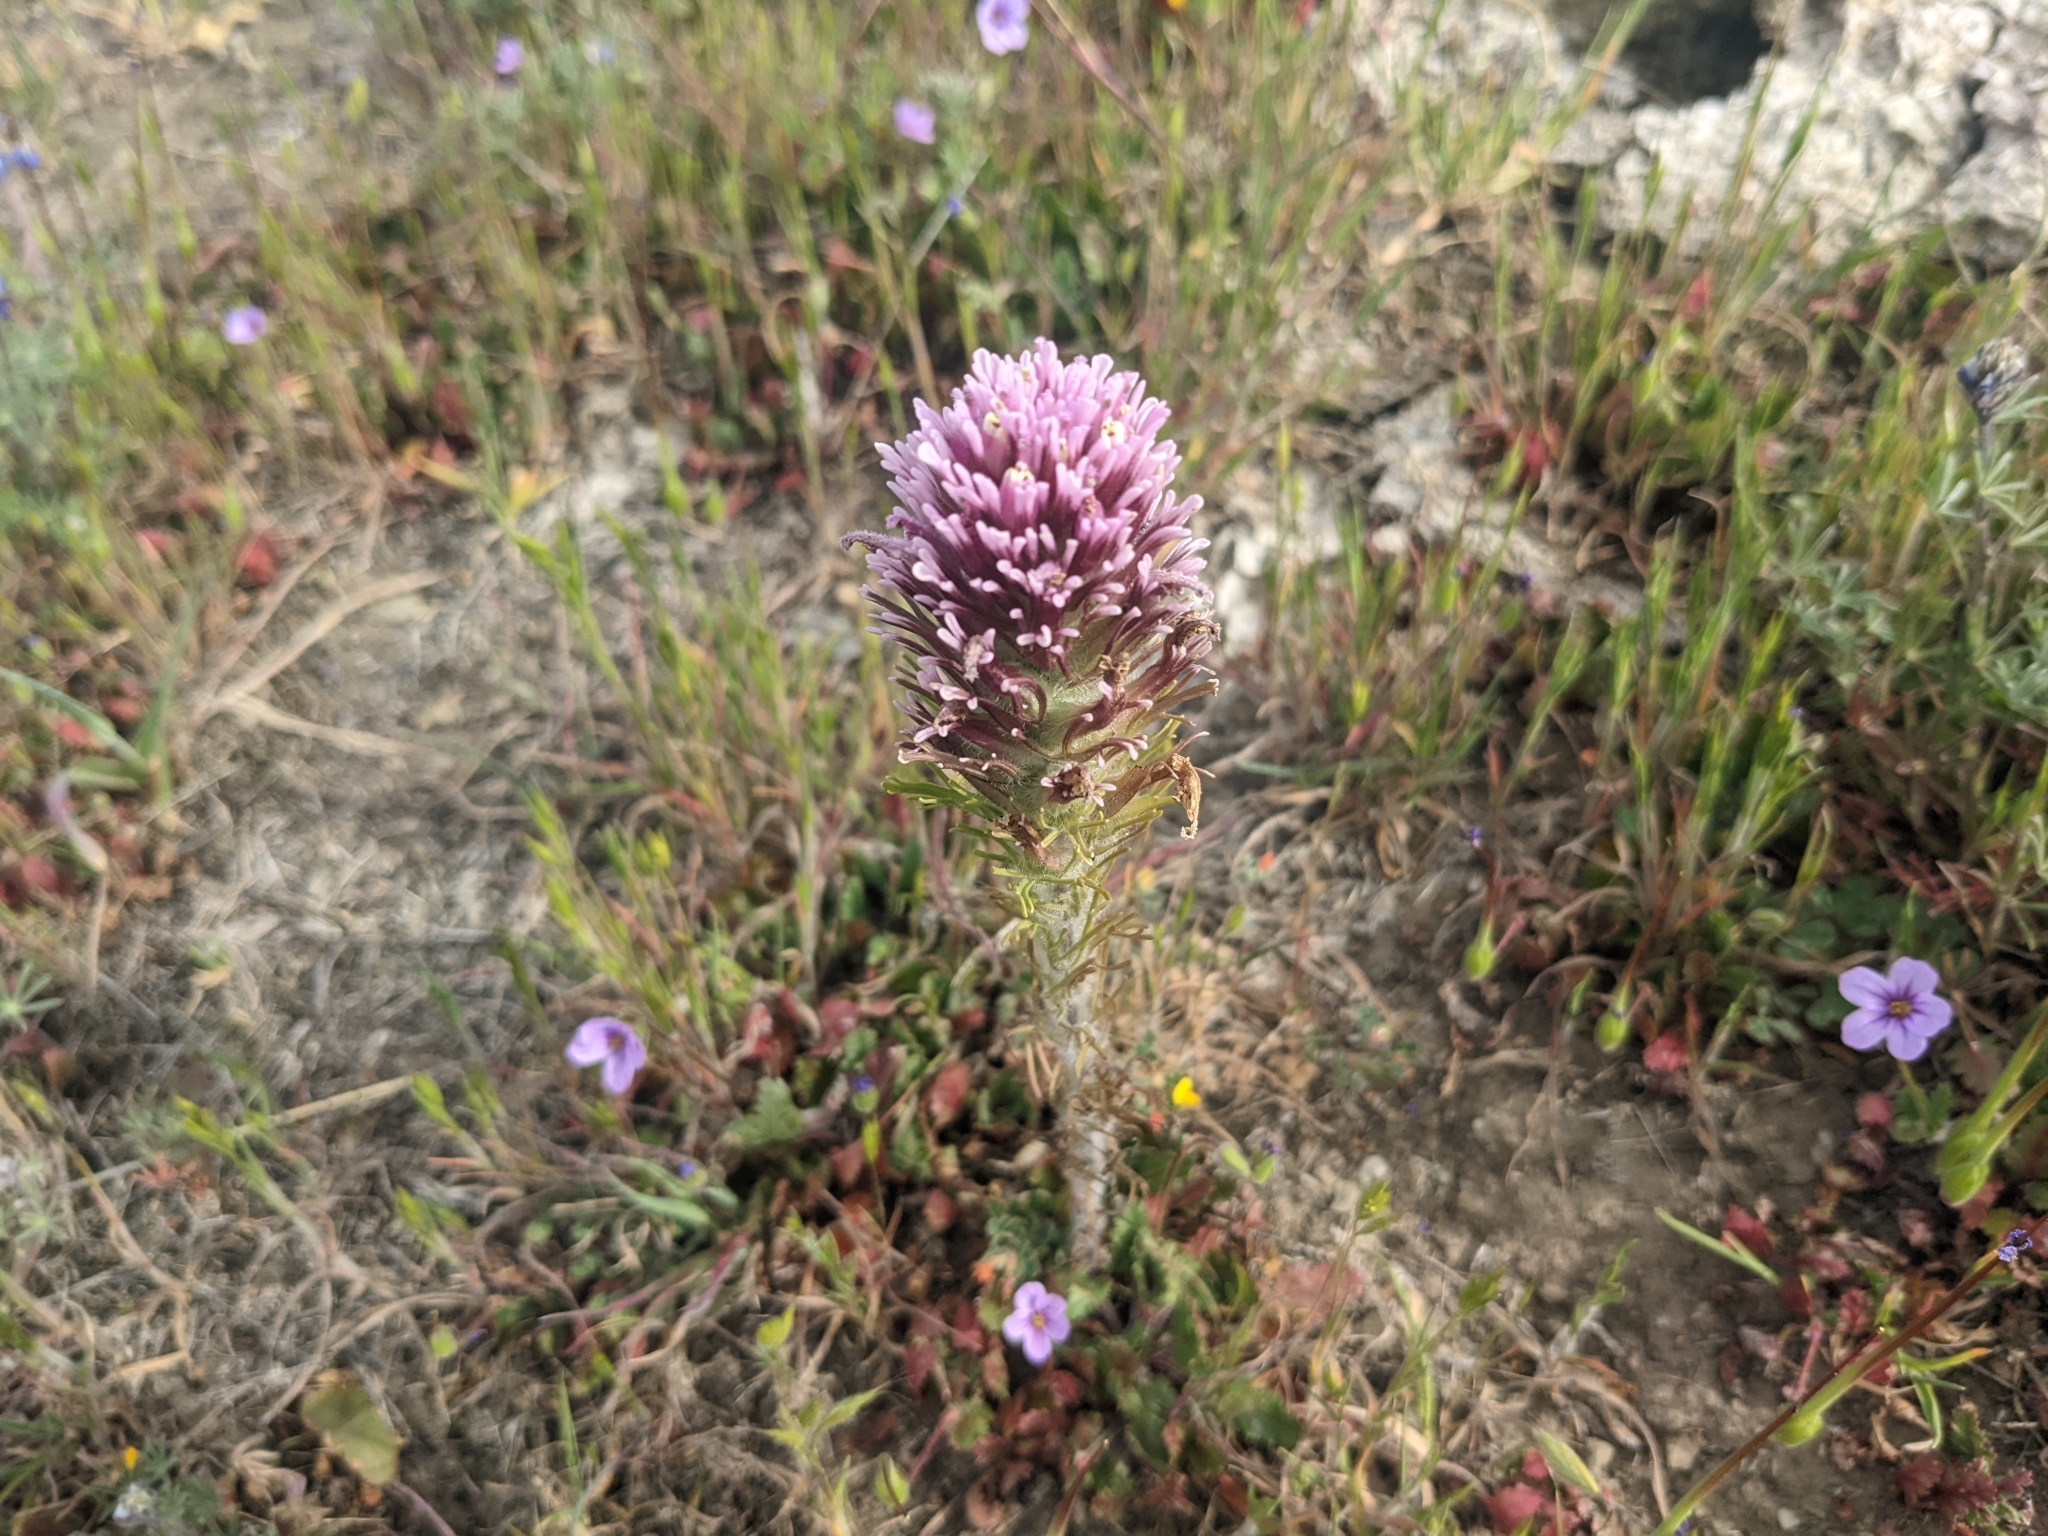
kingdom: Plantae
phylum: Tracheophyta
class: Magnoliopsida
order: Lamiales
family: Orobanchaceae
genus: Castilleja
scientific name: Castilleja exserta
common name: Purple owl-clover
